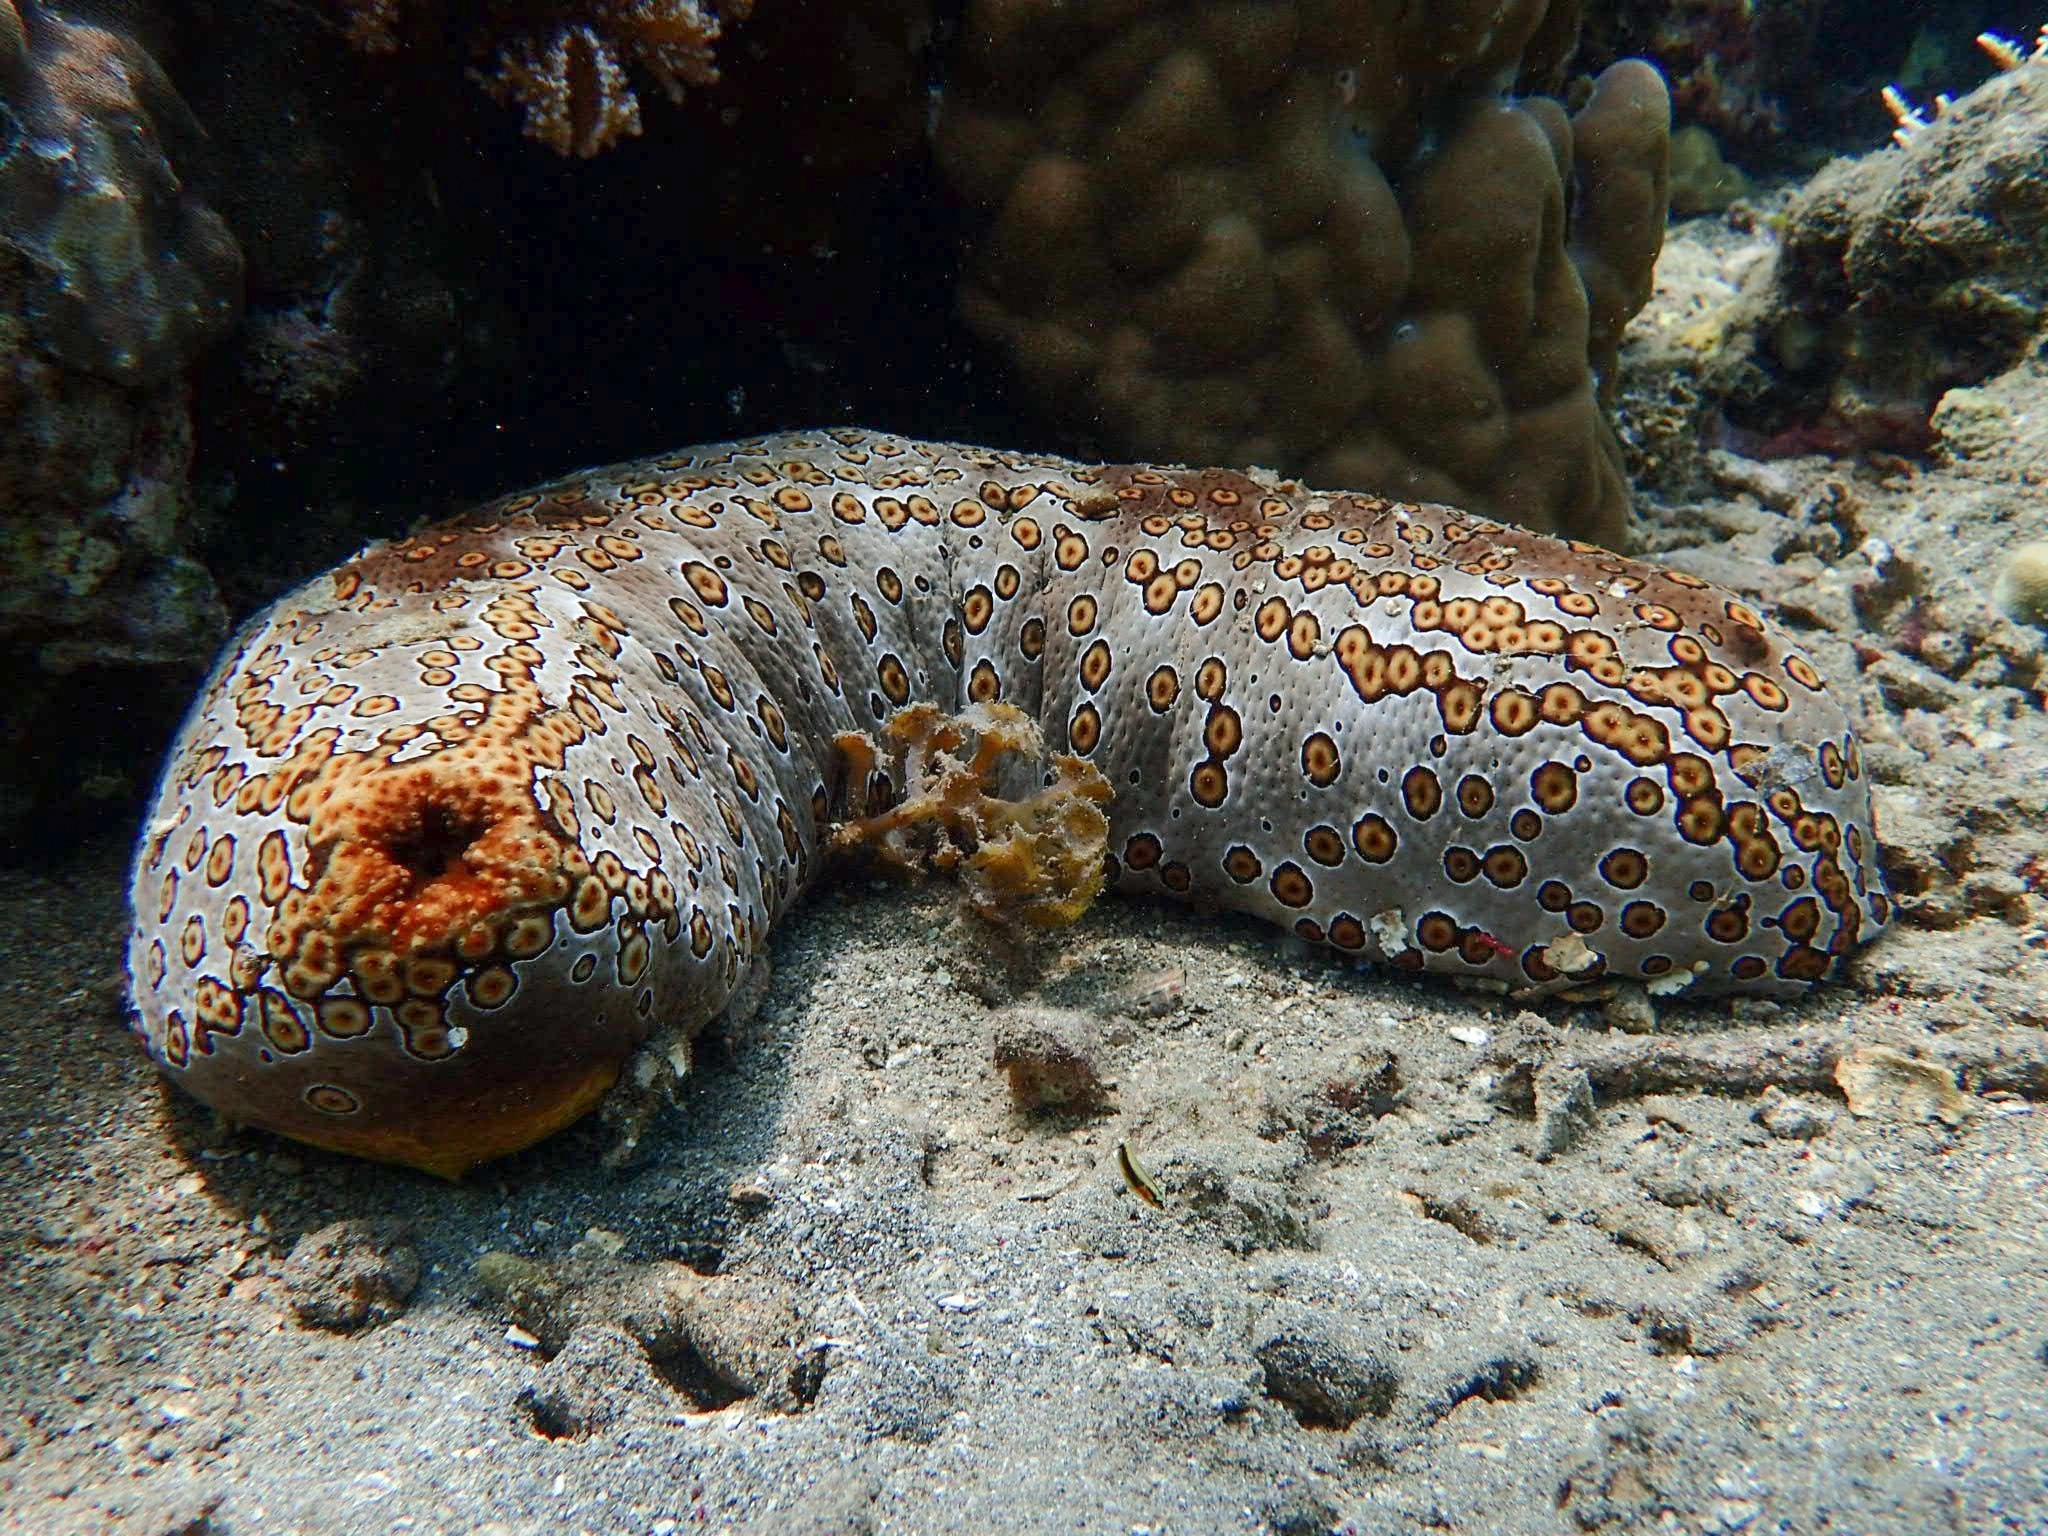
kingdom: Animalia
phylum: Echinodermata
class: Holothuroidea
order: Holothuriida
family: Holothuriidae
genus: Bohadschia
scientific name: Bohadschia argus
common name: Leopardfish
